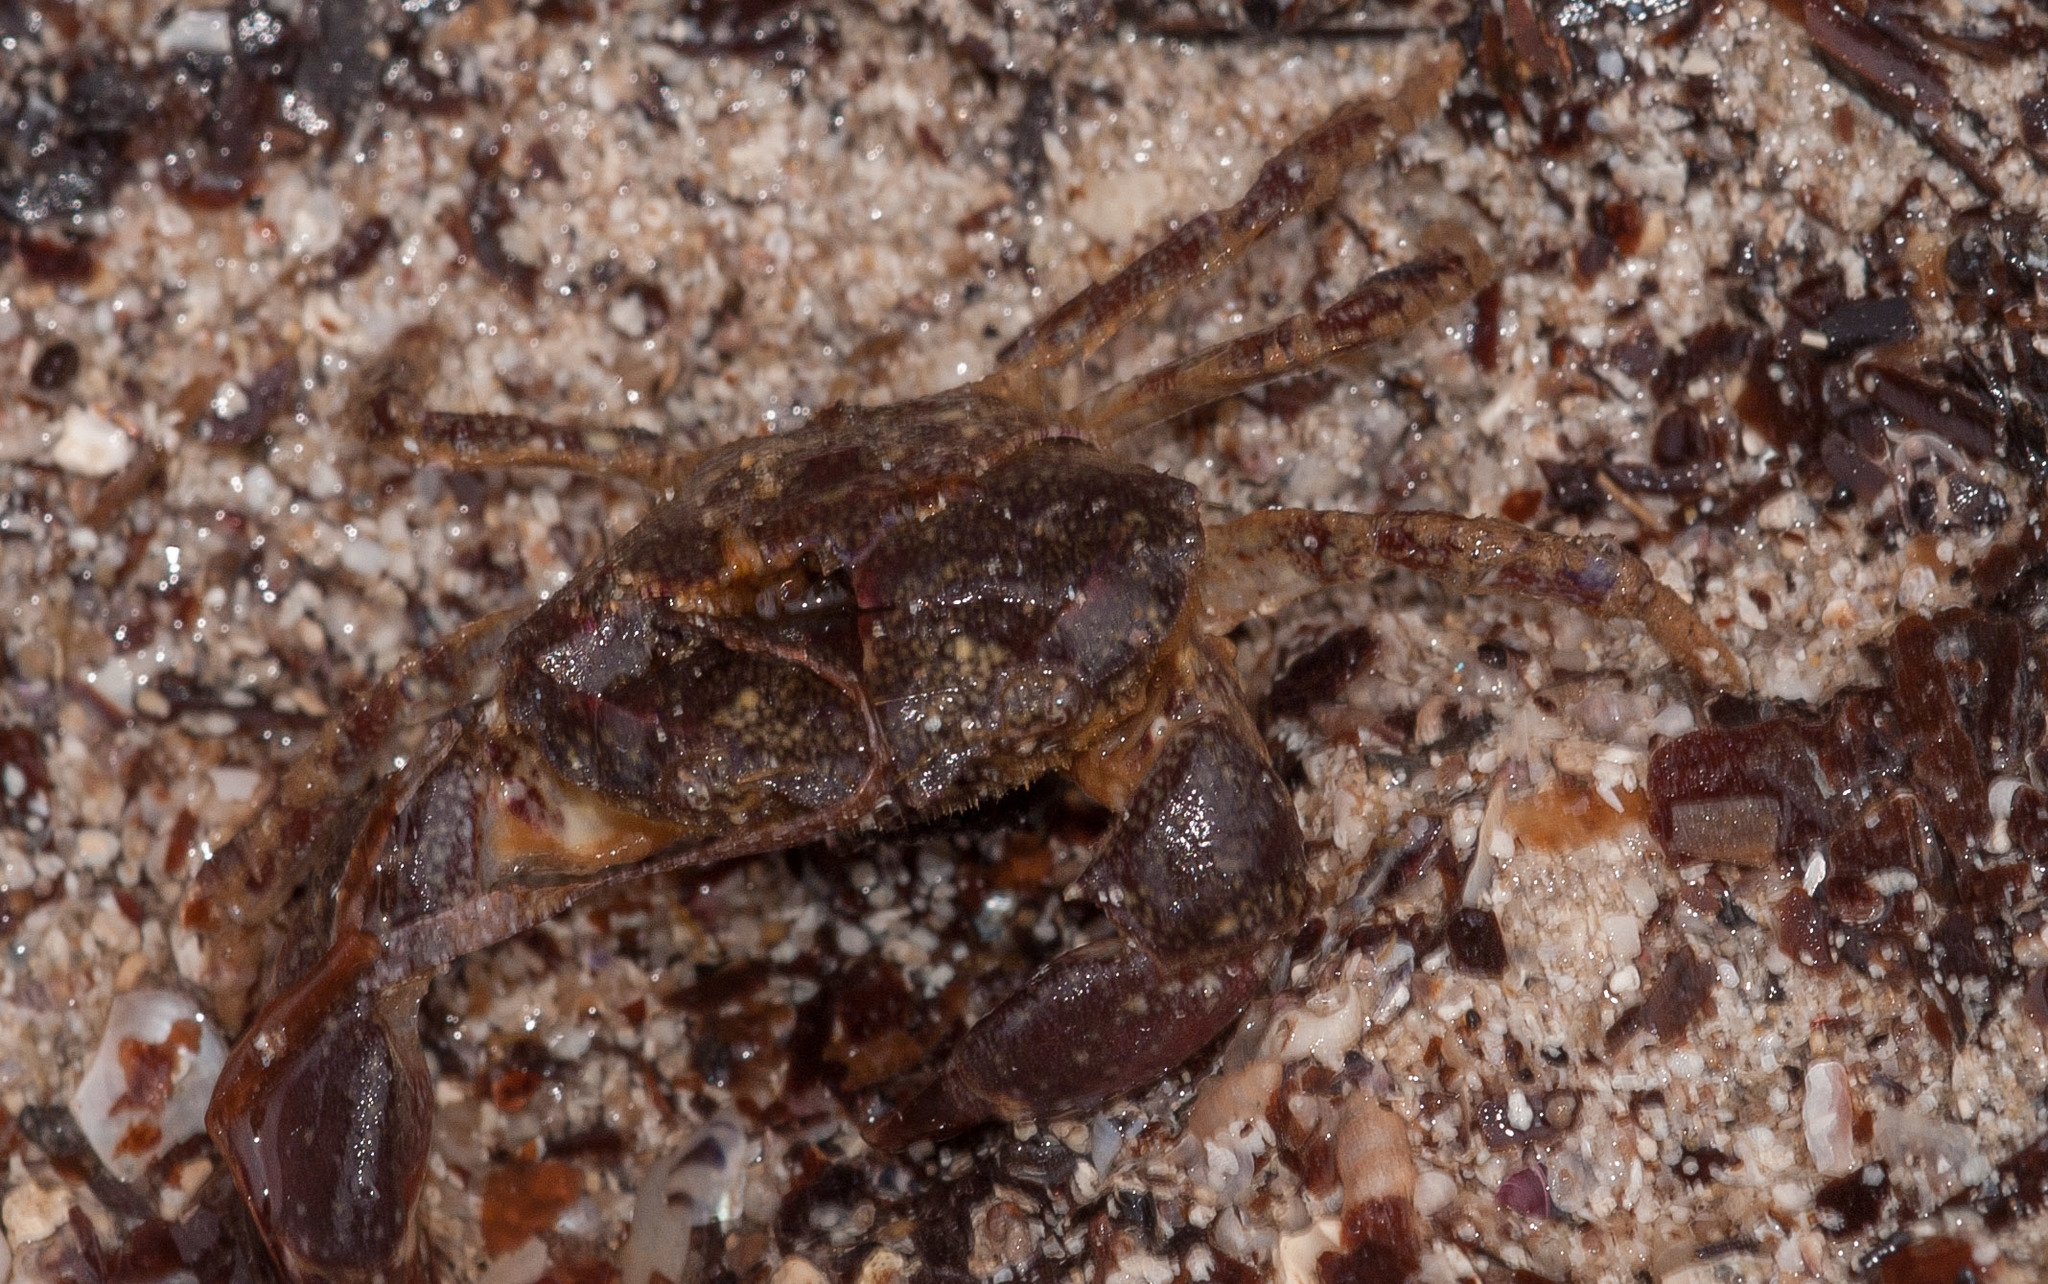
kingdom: Animalia
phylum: Arthropoda
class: Malacostraca
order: Decapoda
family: Oziidae
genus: Ozius
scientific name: Ozius truncatus
